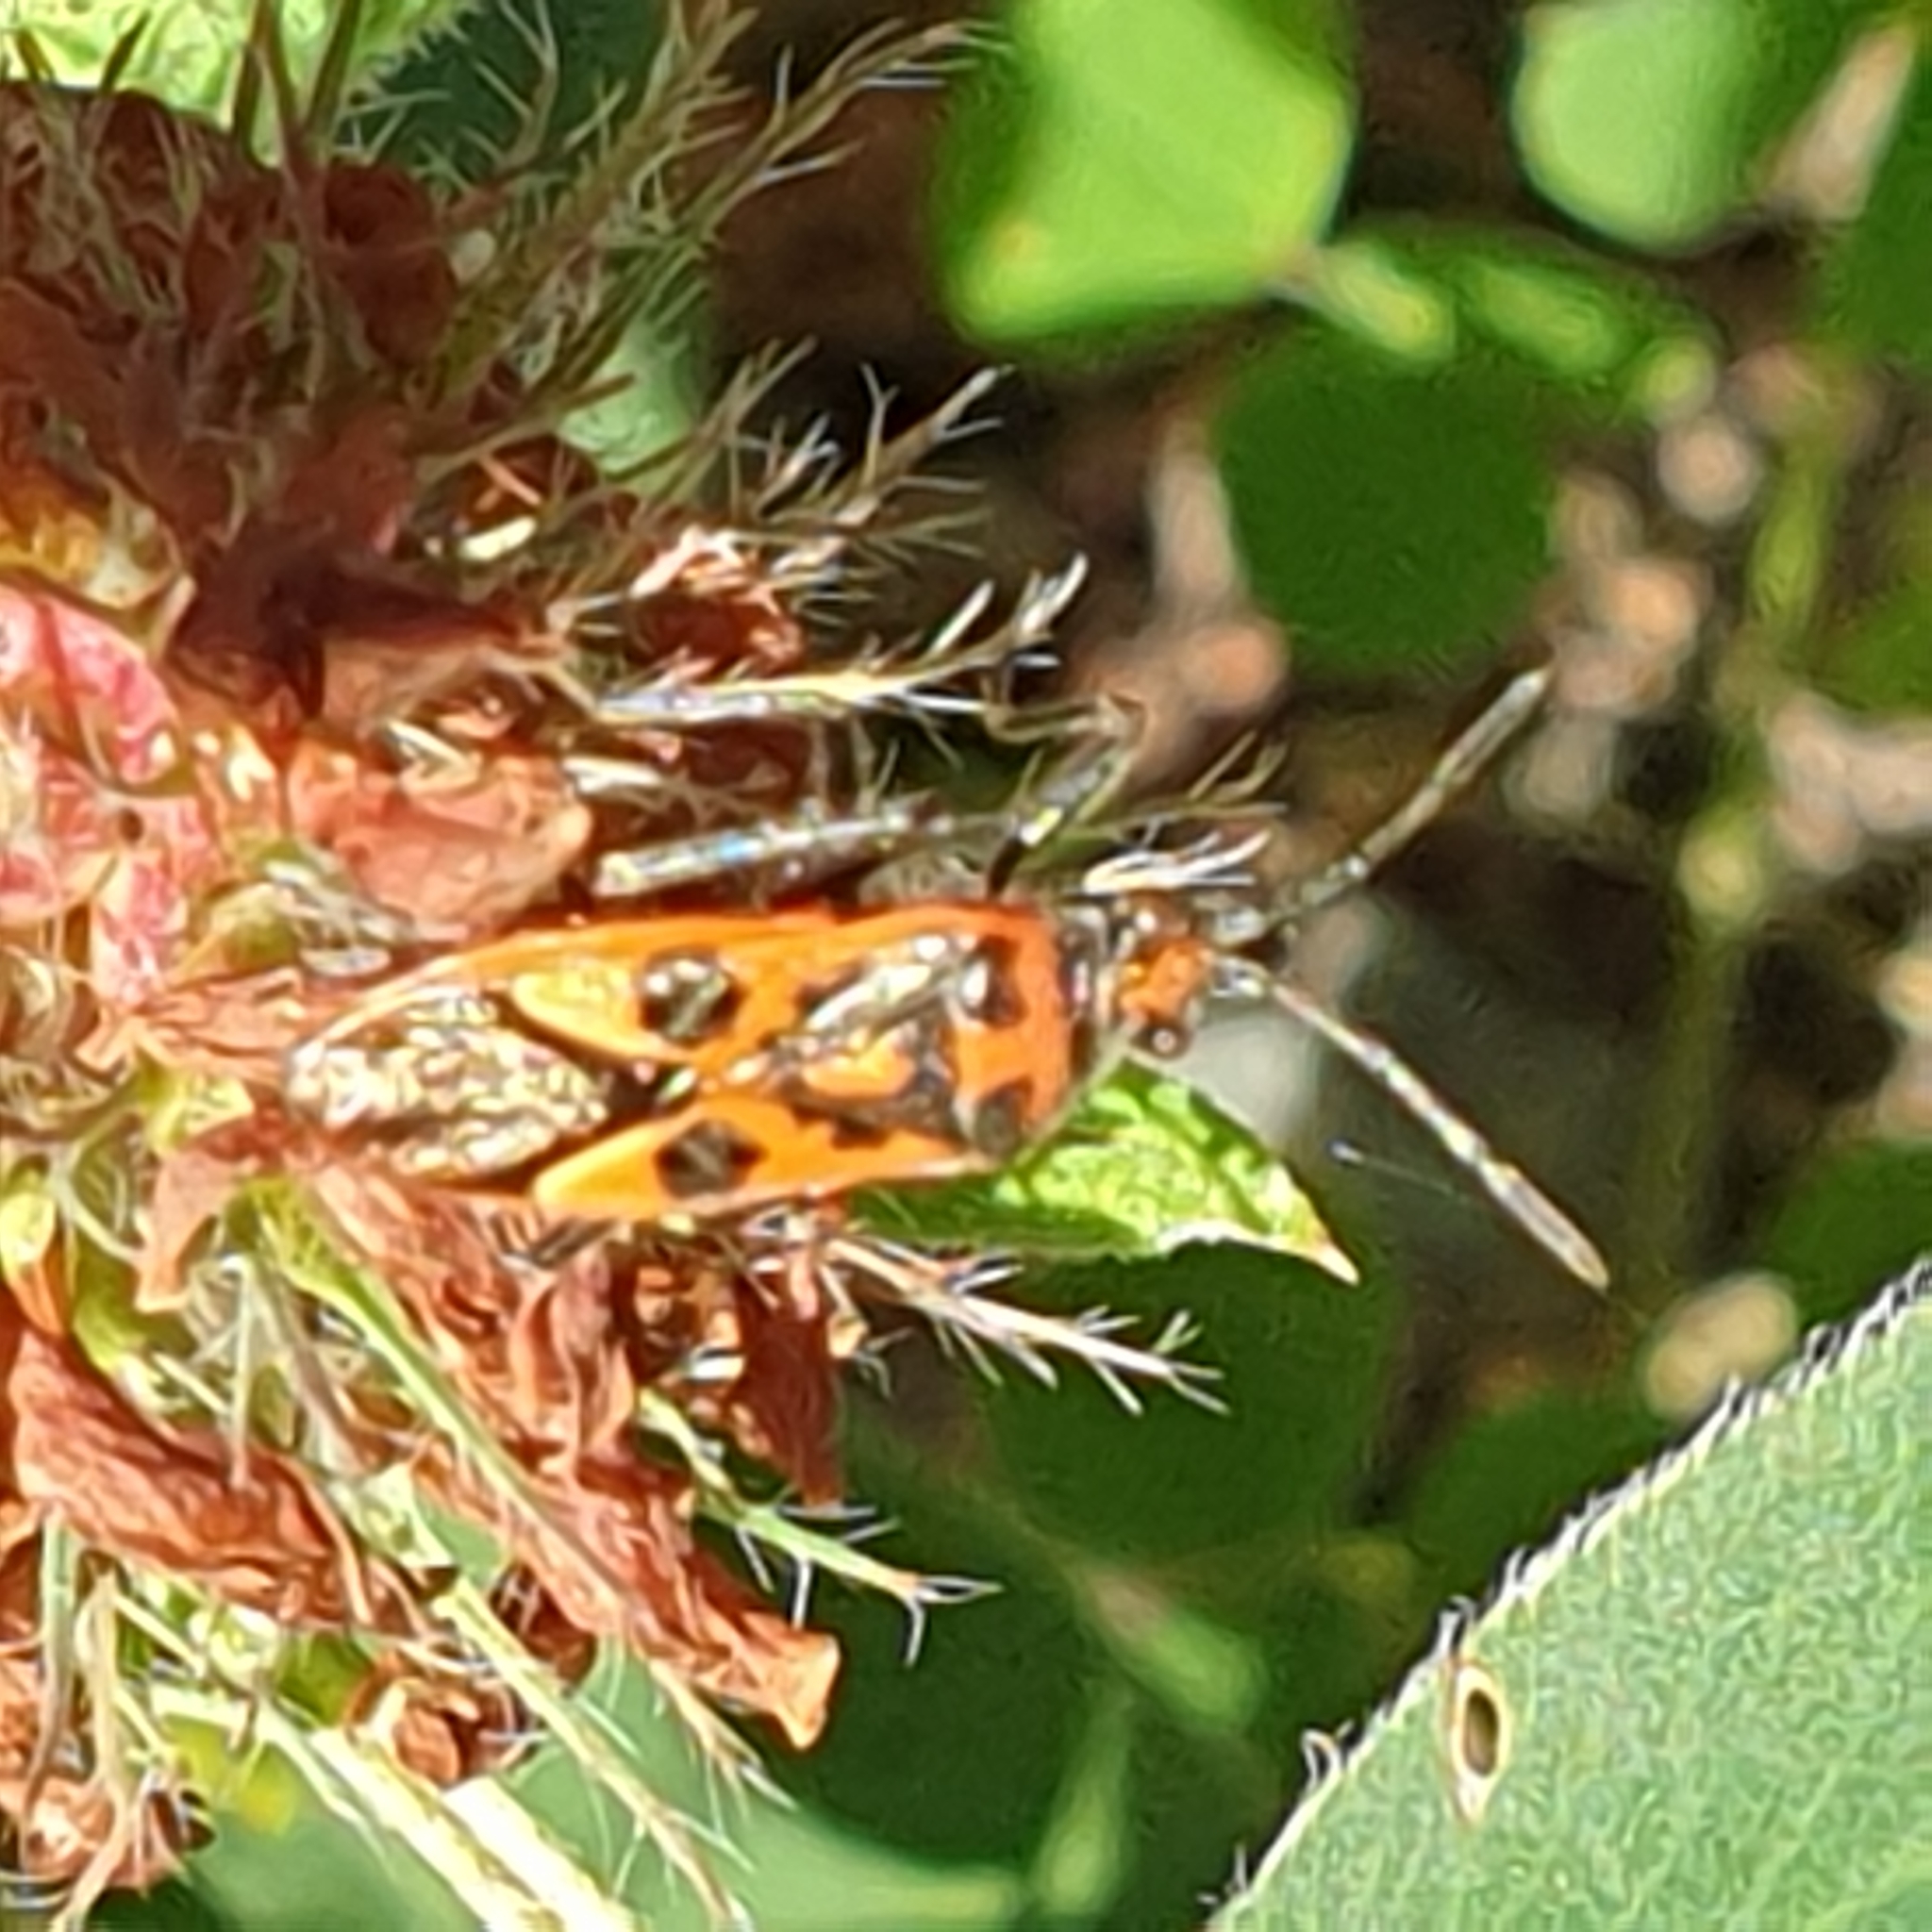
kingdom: Animalia
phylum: Arthropoda
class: Insecta
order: Hemiptera
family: Rhopalidae
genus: Corizus
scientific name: Corizus hyoscyami
